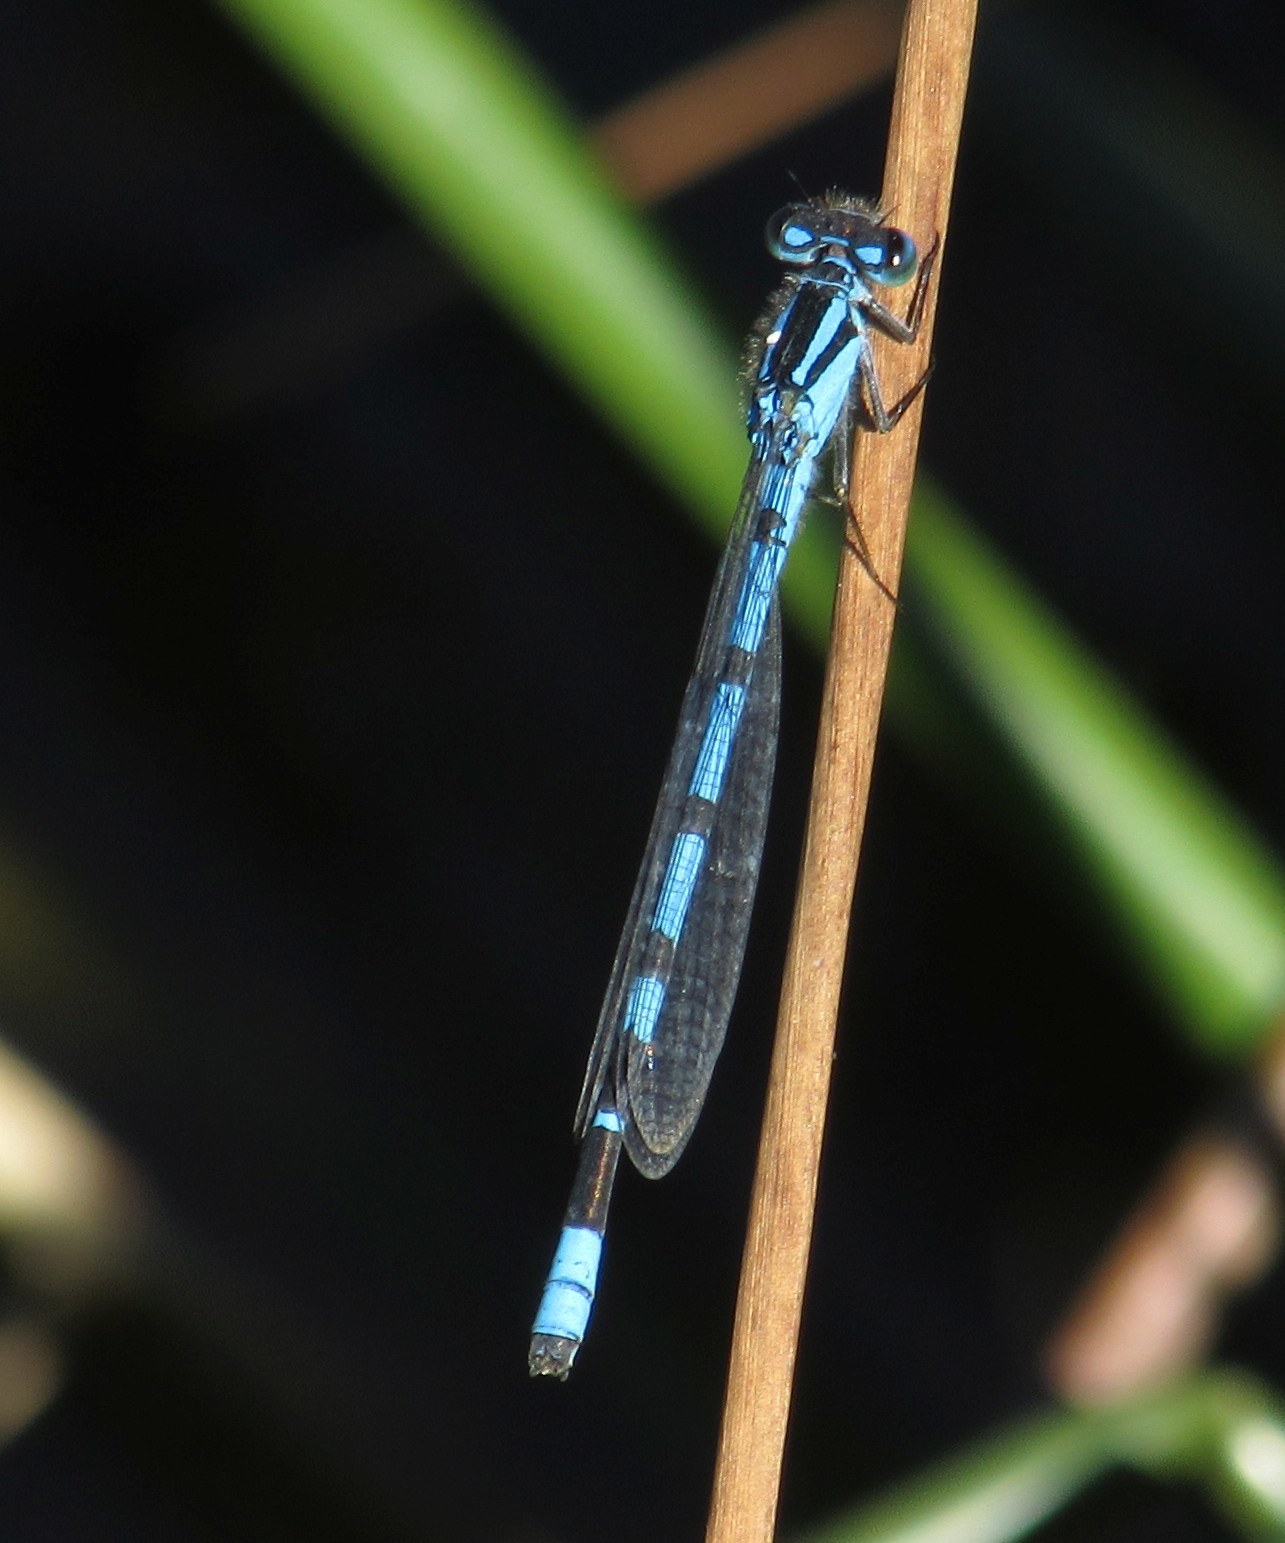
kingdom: Animalia
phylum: Arthropoda
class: Insecta
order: Odonata
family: Coenagrionidae
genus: Enallagma
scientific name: Enallagma cyathigerum
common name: Common blue damselfly
